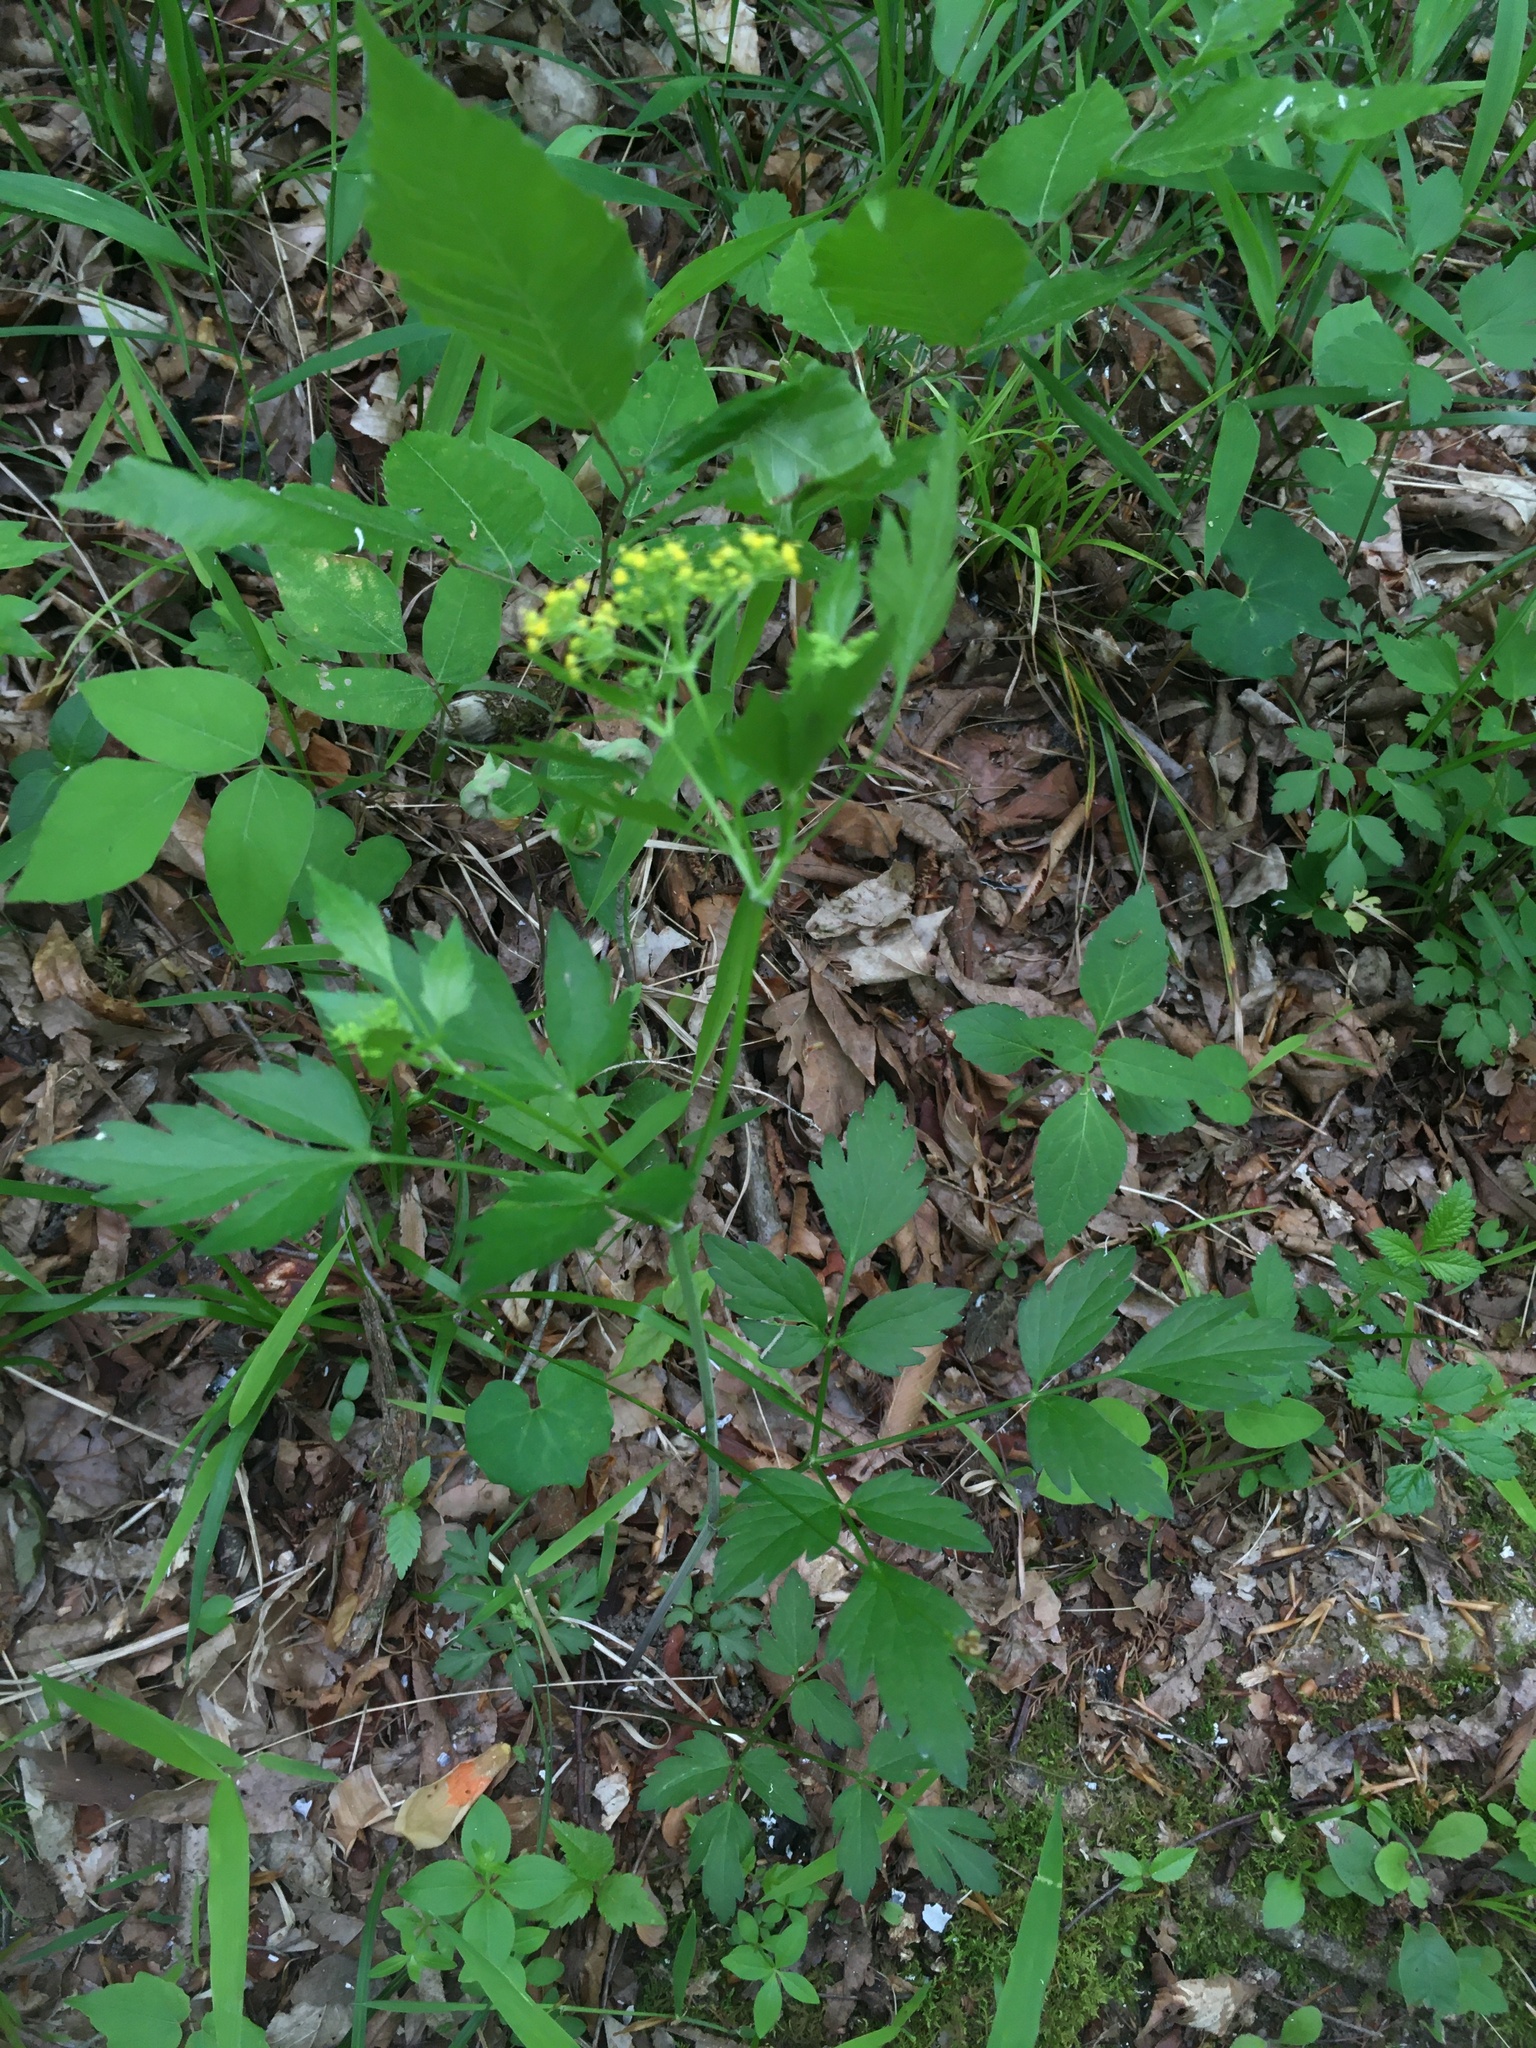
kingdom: Plantae
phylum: Tracheophyta
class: Magnoliopsida
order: Apiales
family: Apiaceae
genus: Thaspium
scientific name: Thaspium barbinode
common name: Bearded meadow-parsnip
